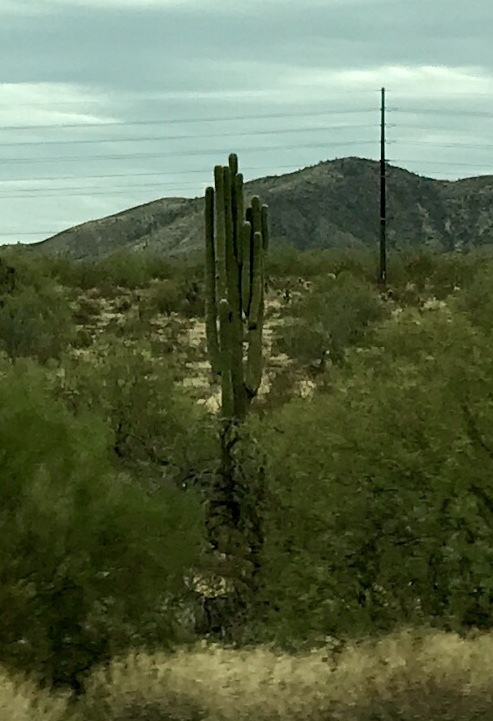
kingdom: Plantae
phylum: Tracheophyta
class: Magnoliopsida
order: Caryophyllales
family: Cactaceae
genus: Carnegiea
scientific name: Carnegiea gigantea
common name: Saguaro
